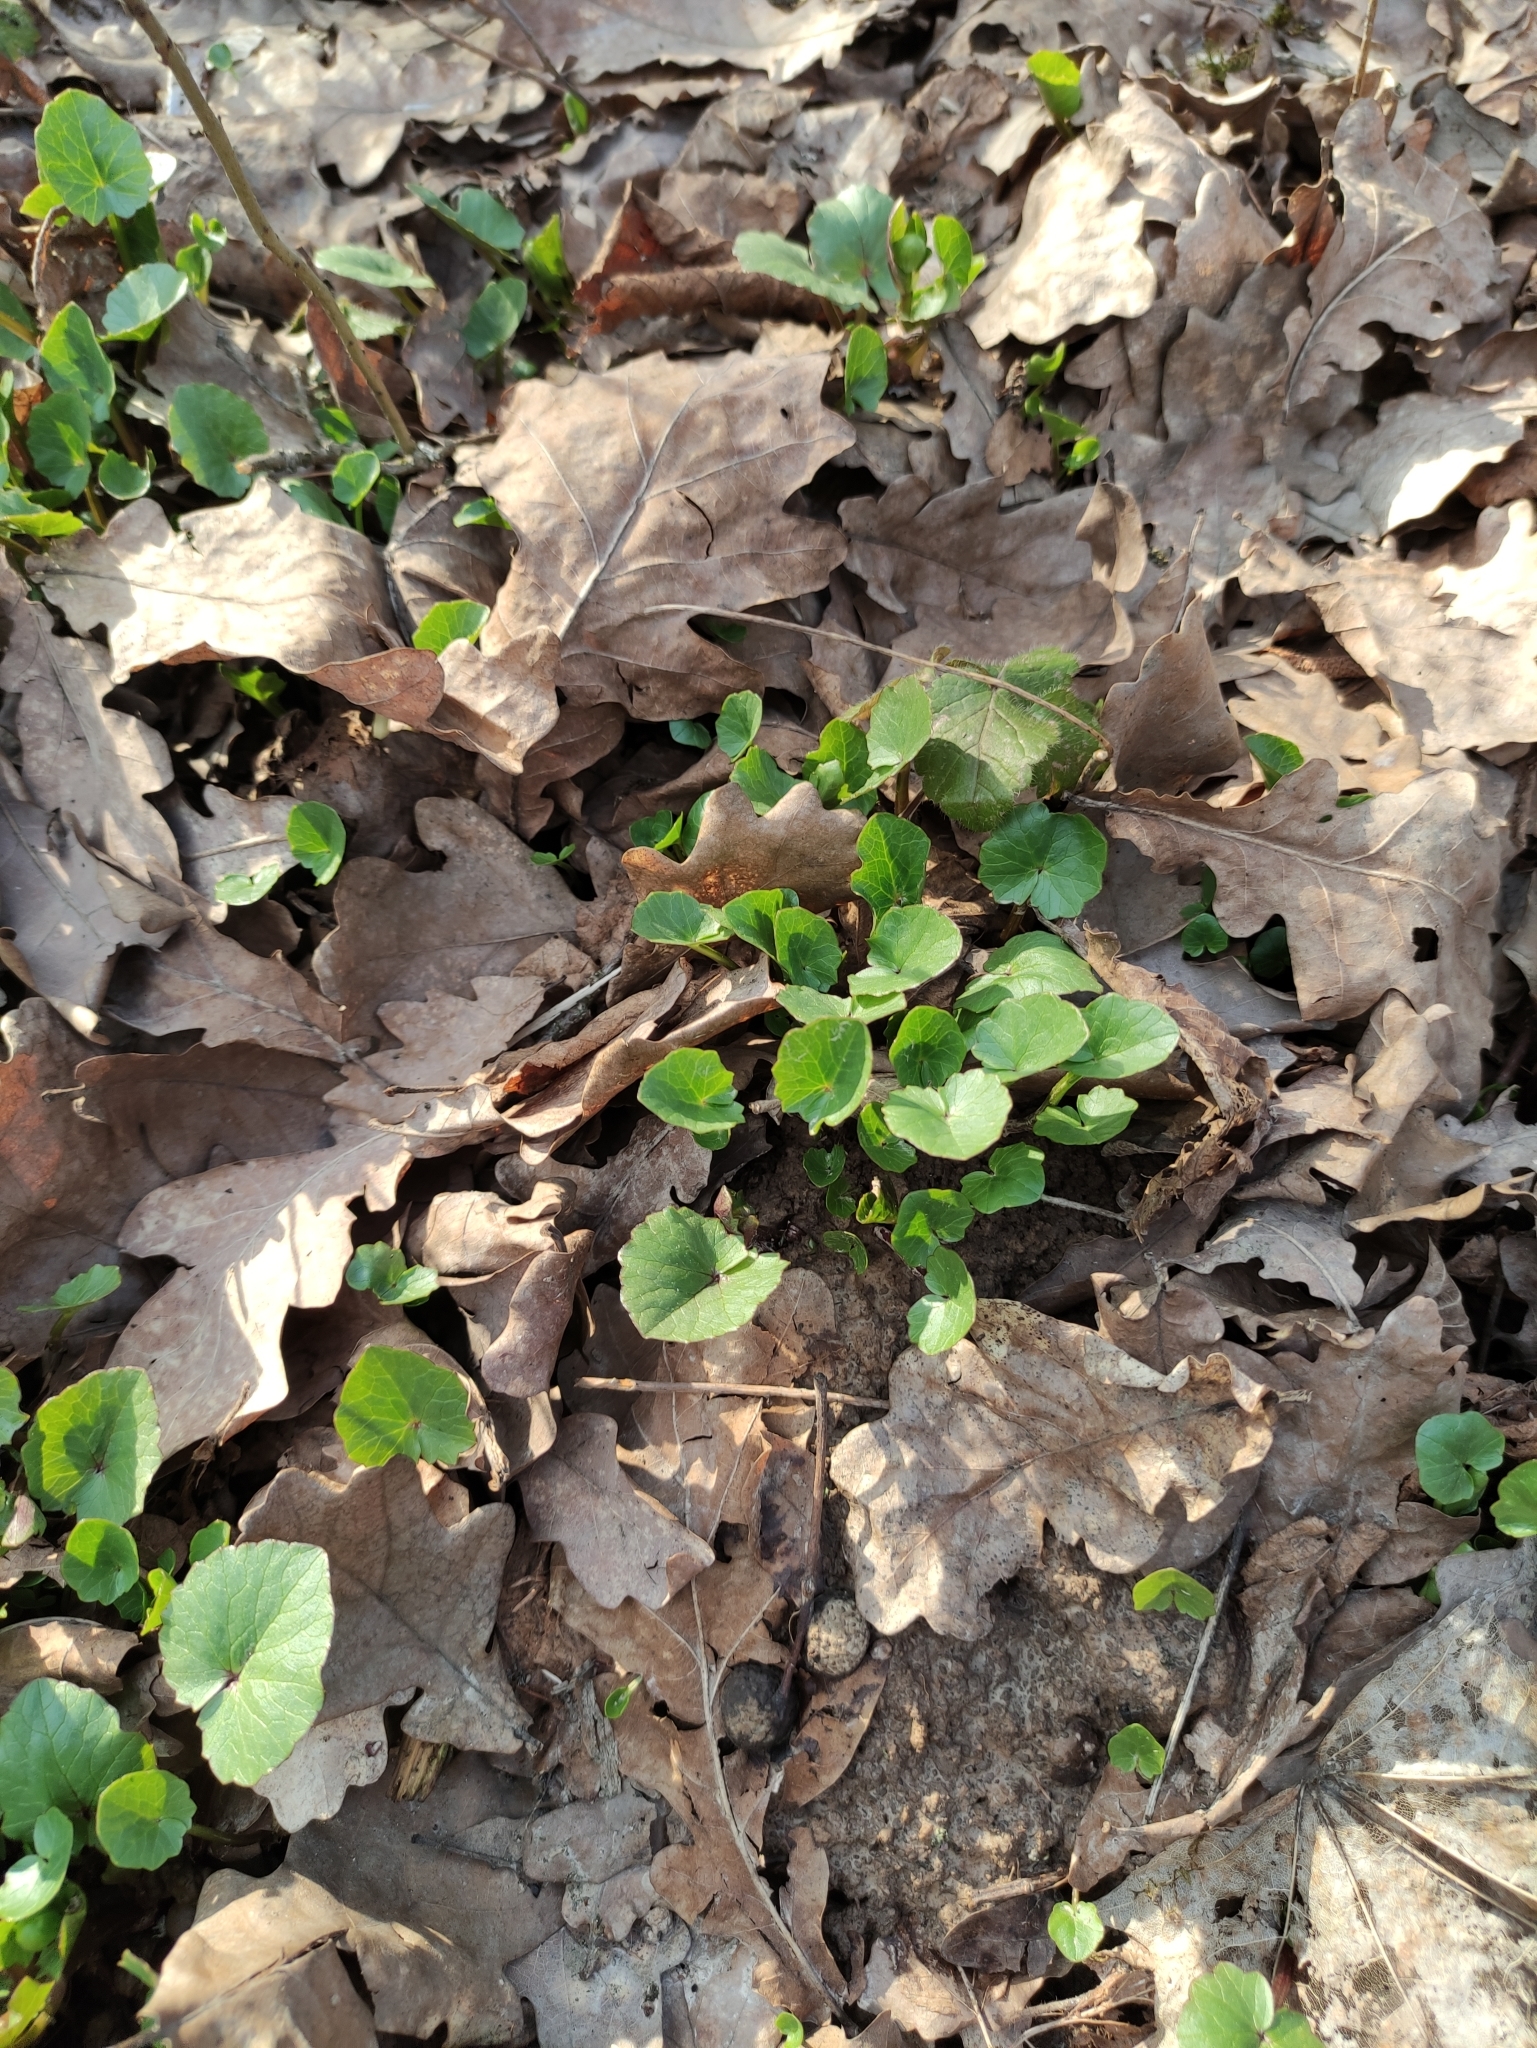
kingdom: Plantae
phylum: Tracheophyta
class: Magnoliopsida
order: Ranunculales
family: Ranunculaceae
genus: Ficaria
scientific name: Ficaria verna
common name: Lesser celandine
